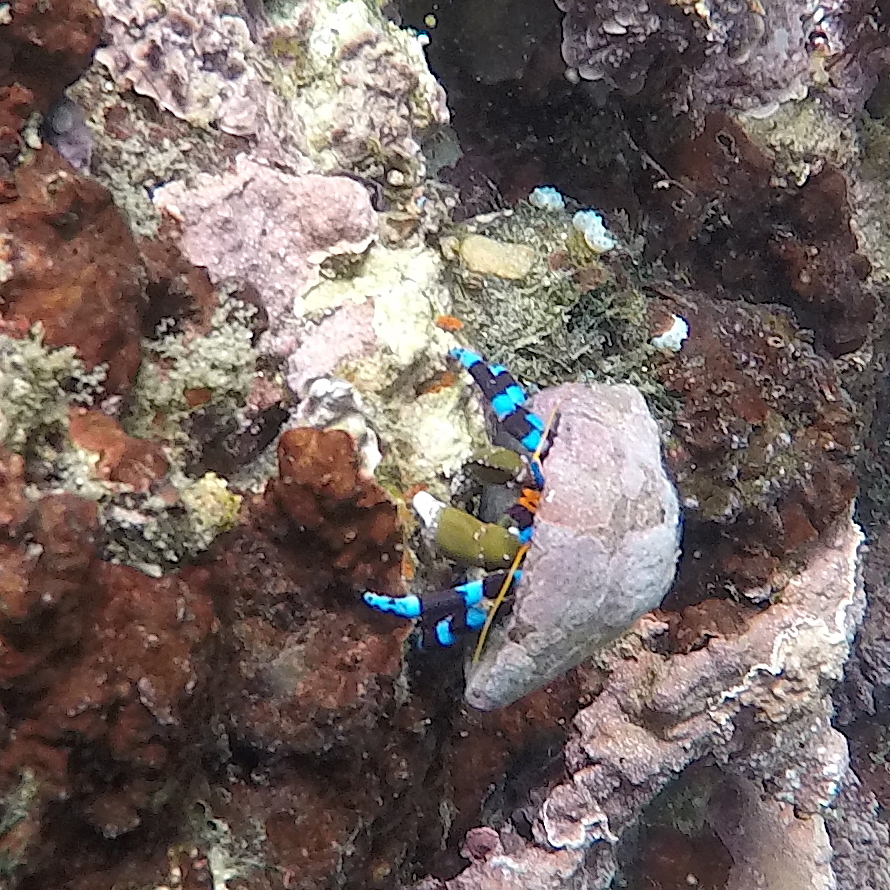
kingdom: Animalia
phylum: Arthropoda
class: Malacostraca
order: Decapoda
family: Diogenidae
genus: Calcinus
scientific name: Calcinus elegans
